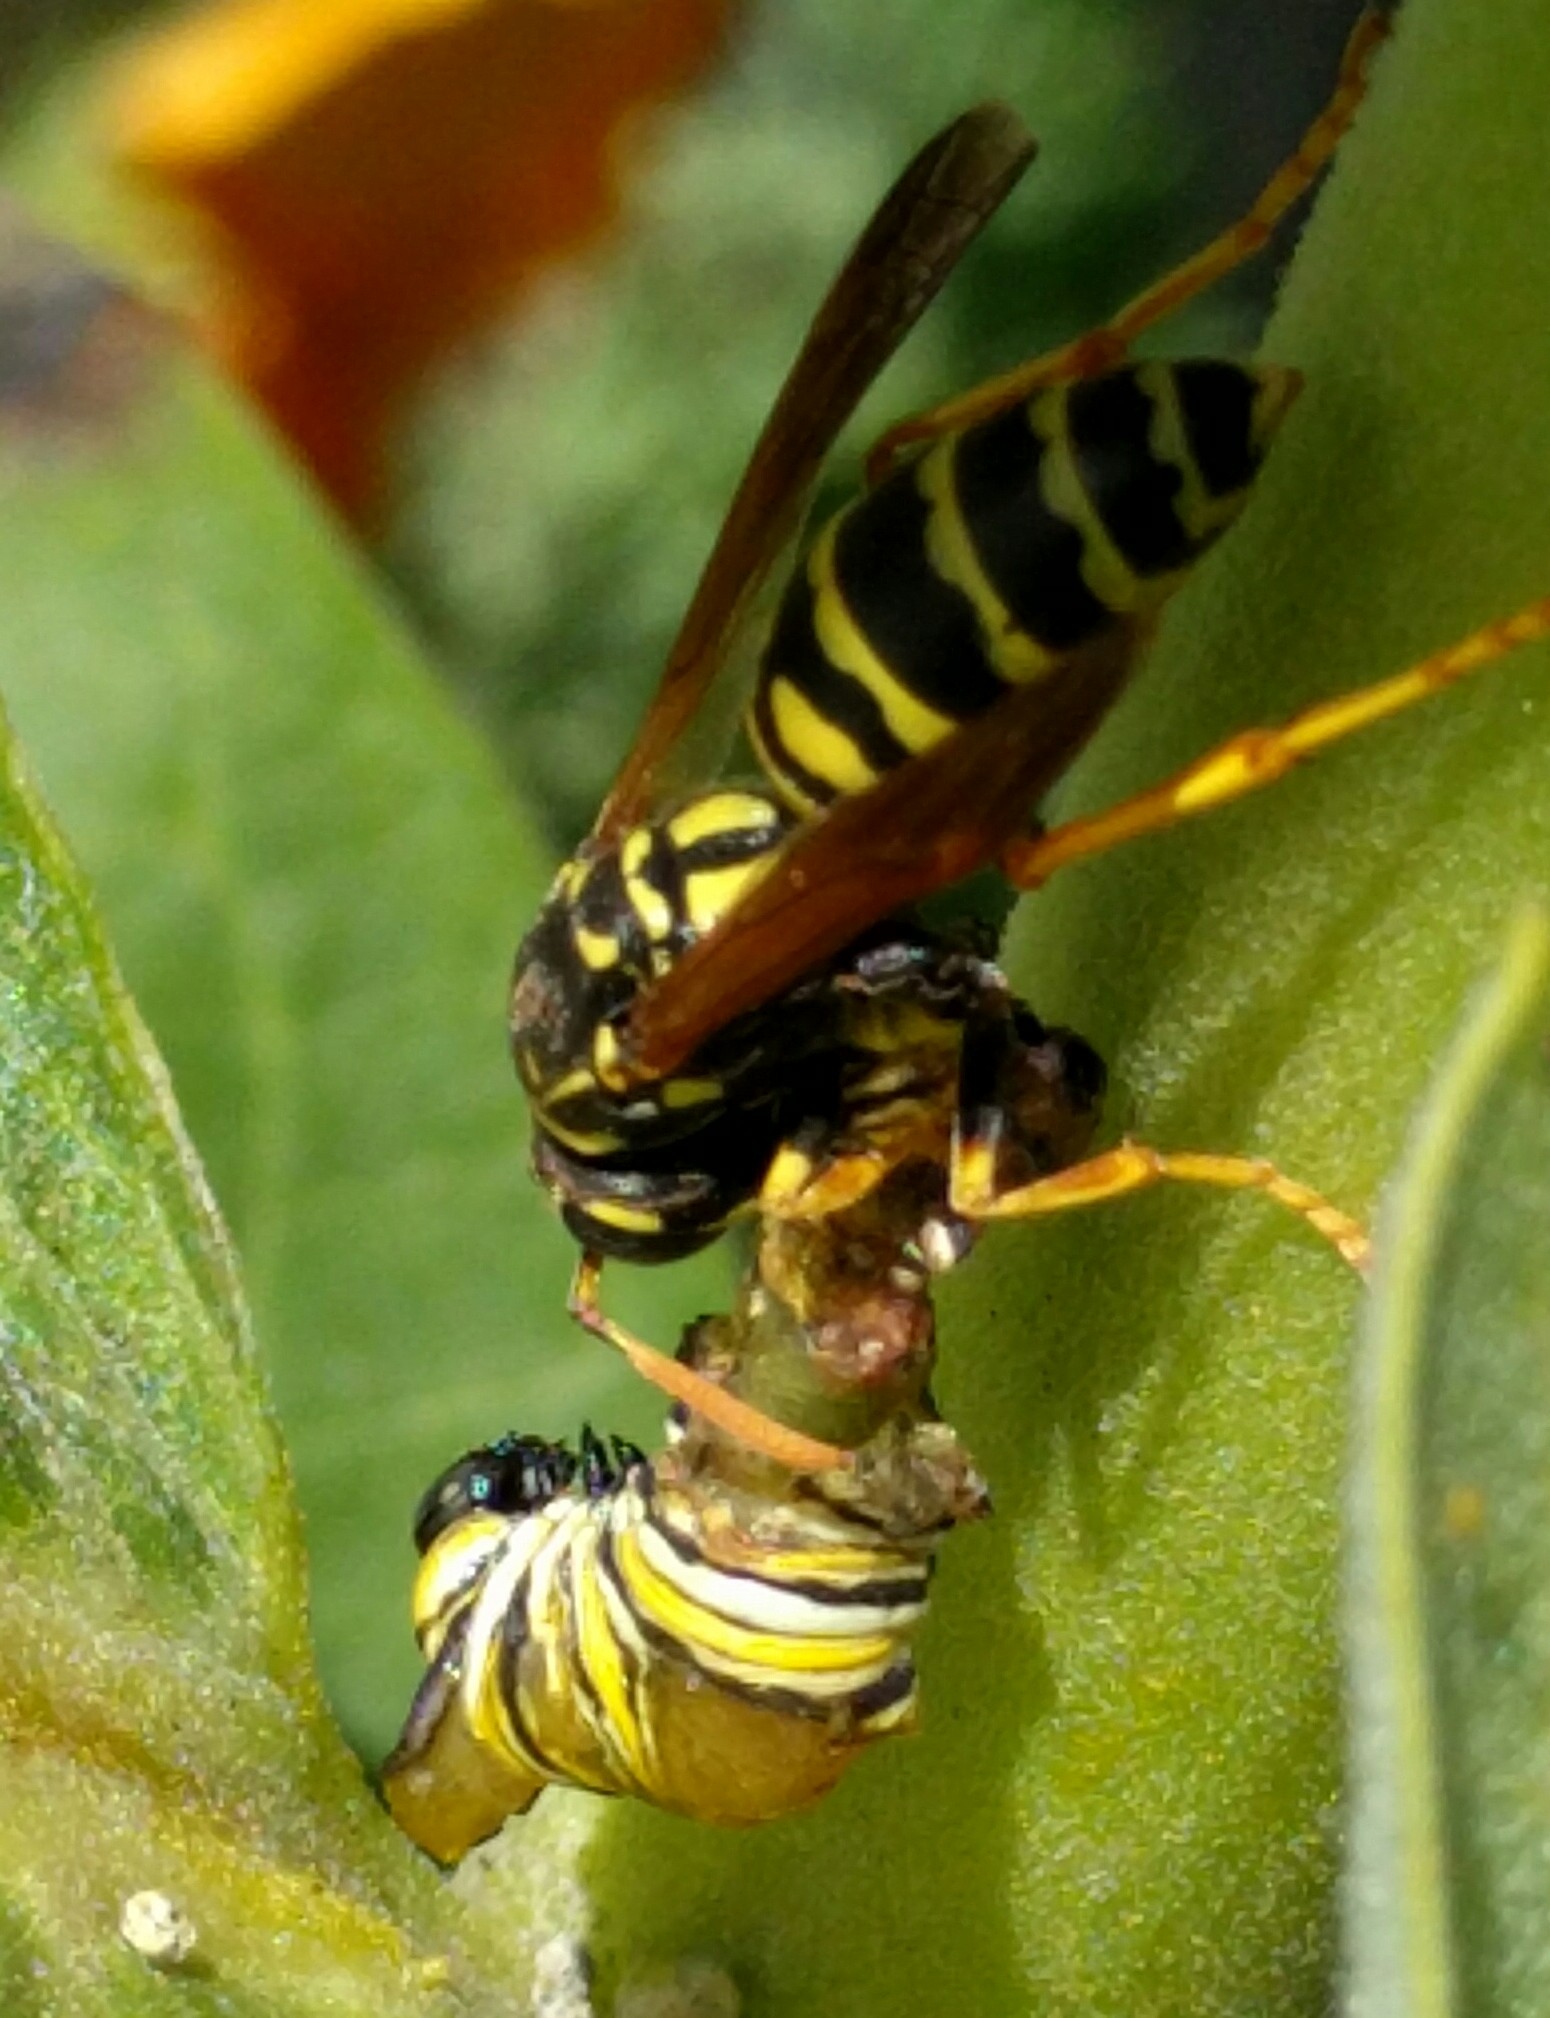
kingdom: Animalia
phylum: Arthropoda
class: Insecta
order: Hymenoptera
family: Eumenidae
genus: Polistes
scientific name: Polistes dominula
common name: Paper wasp
